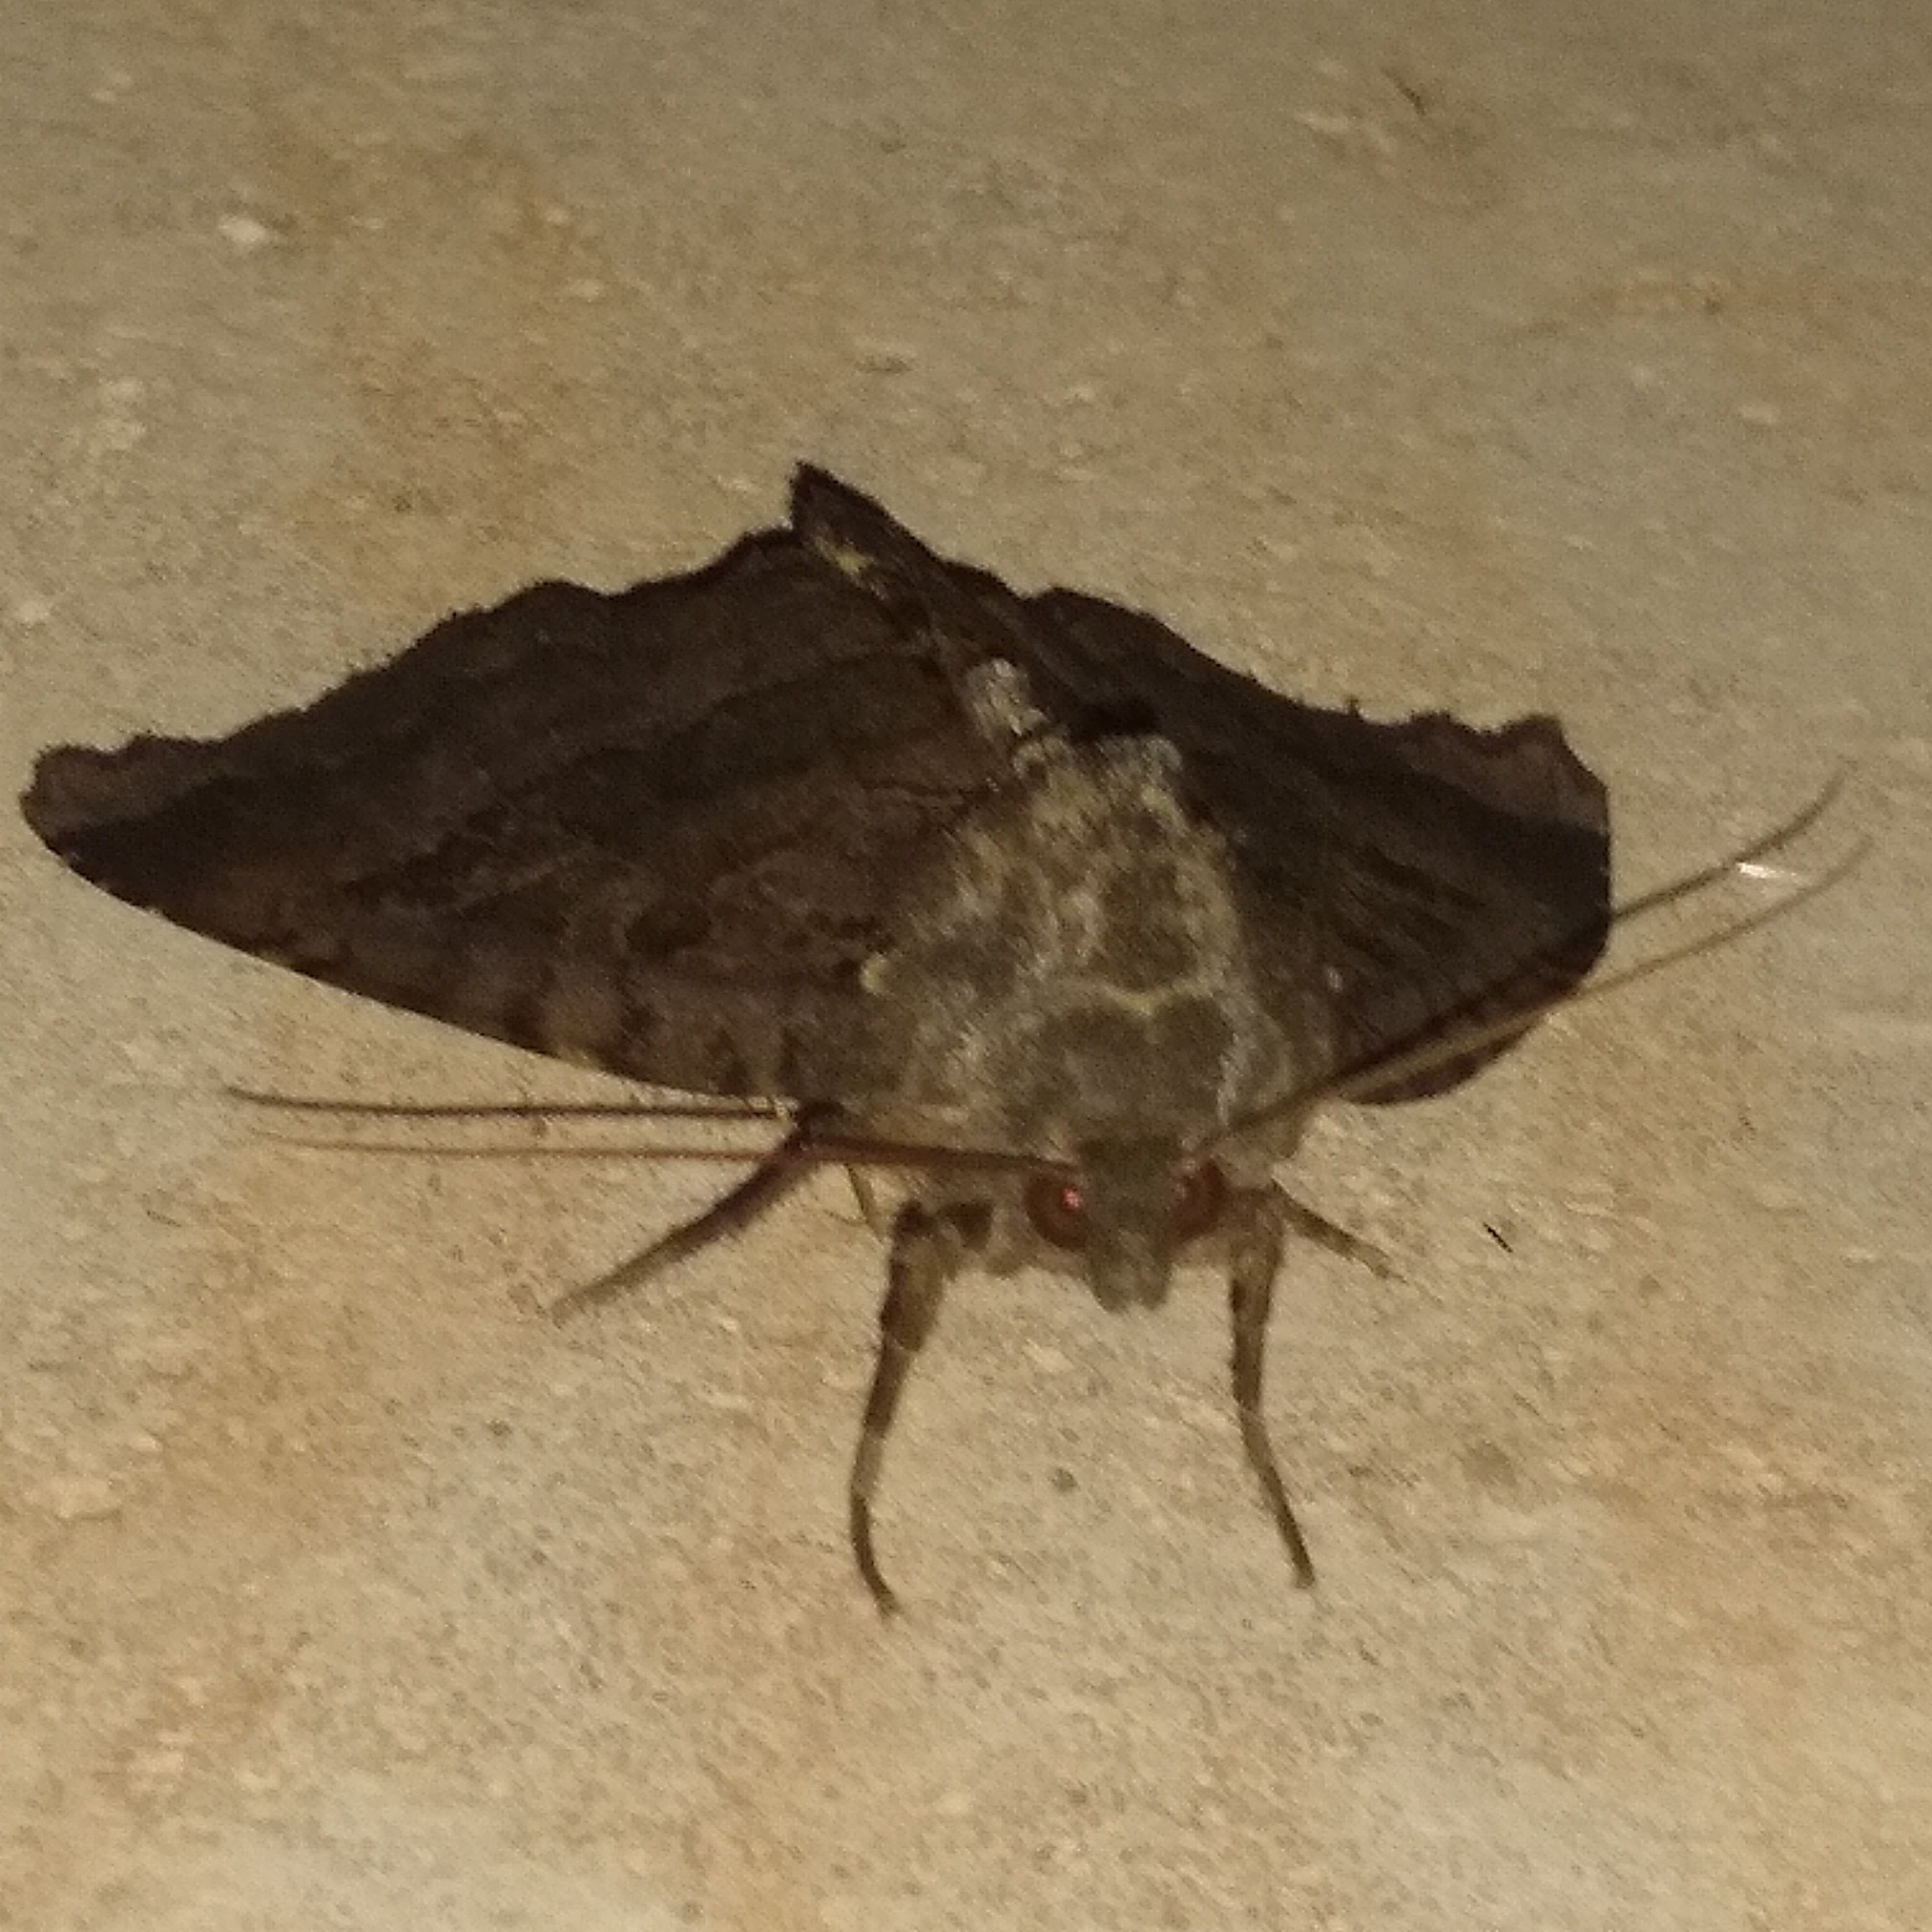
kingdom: Animalia
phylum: Arthropoda
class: Insecta
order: Lepidoptera
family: Noctuidae
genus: Mormo
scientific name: Mormo maura
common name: Old lady
